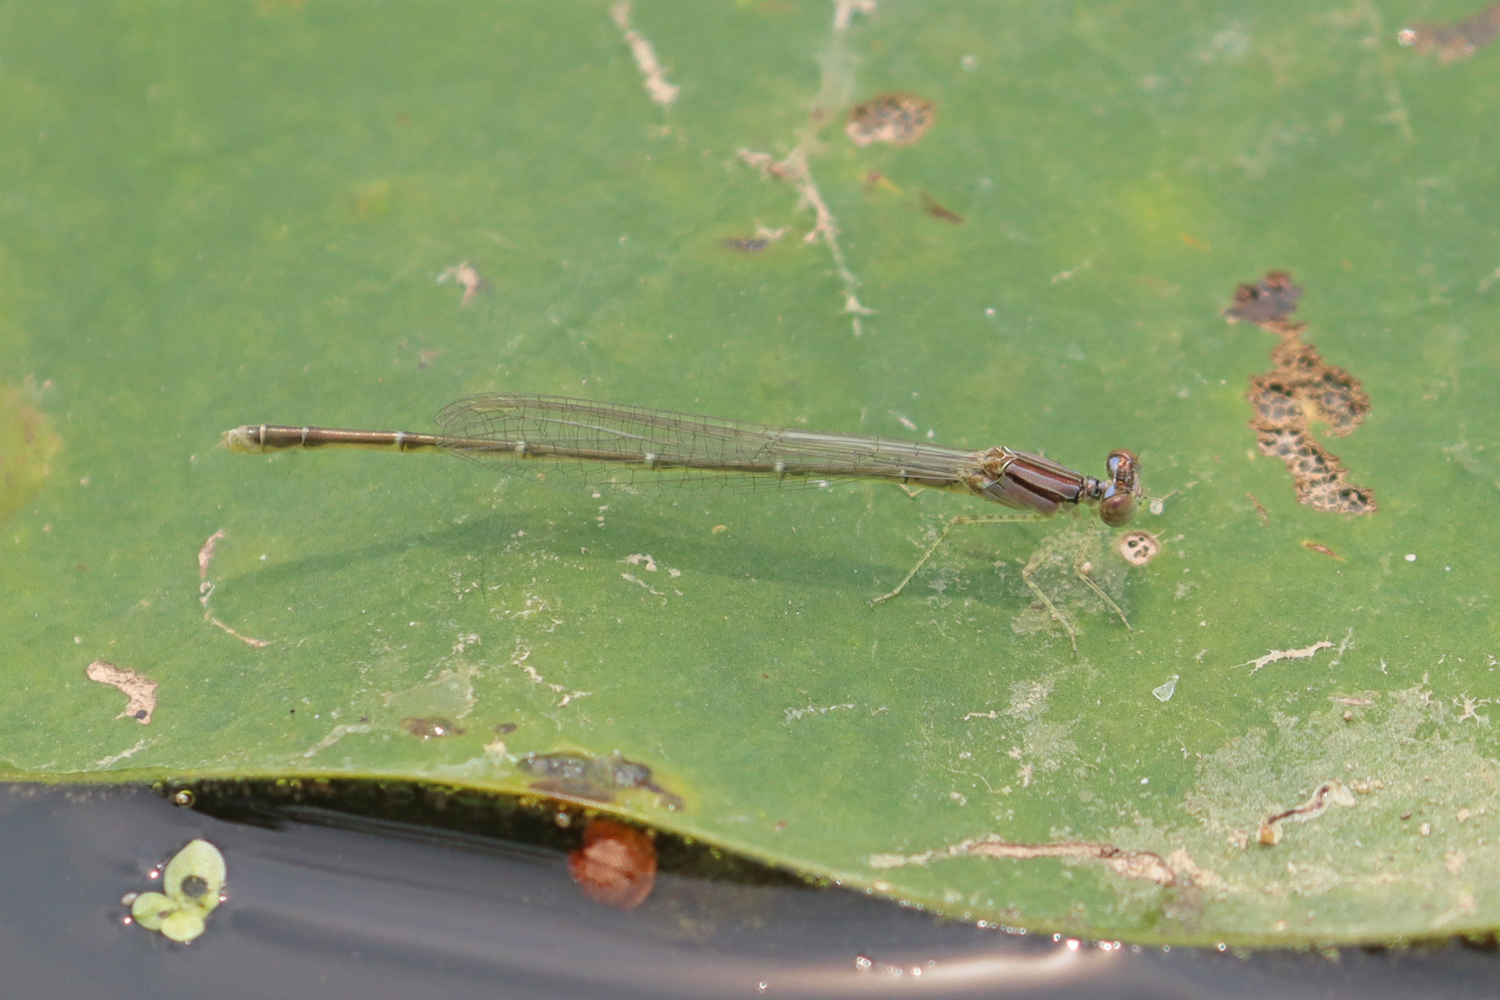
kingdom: Animalia
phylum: Arthropoda
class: Insecta
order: Odonata
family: Coenagrionidae
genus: Enallagma
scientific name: Enallagma signatum
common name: Orange bluet
